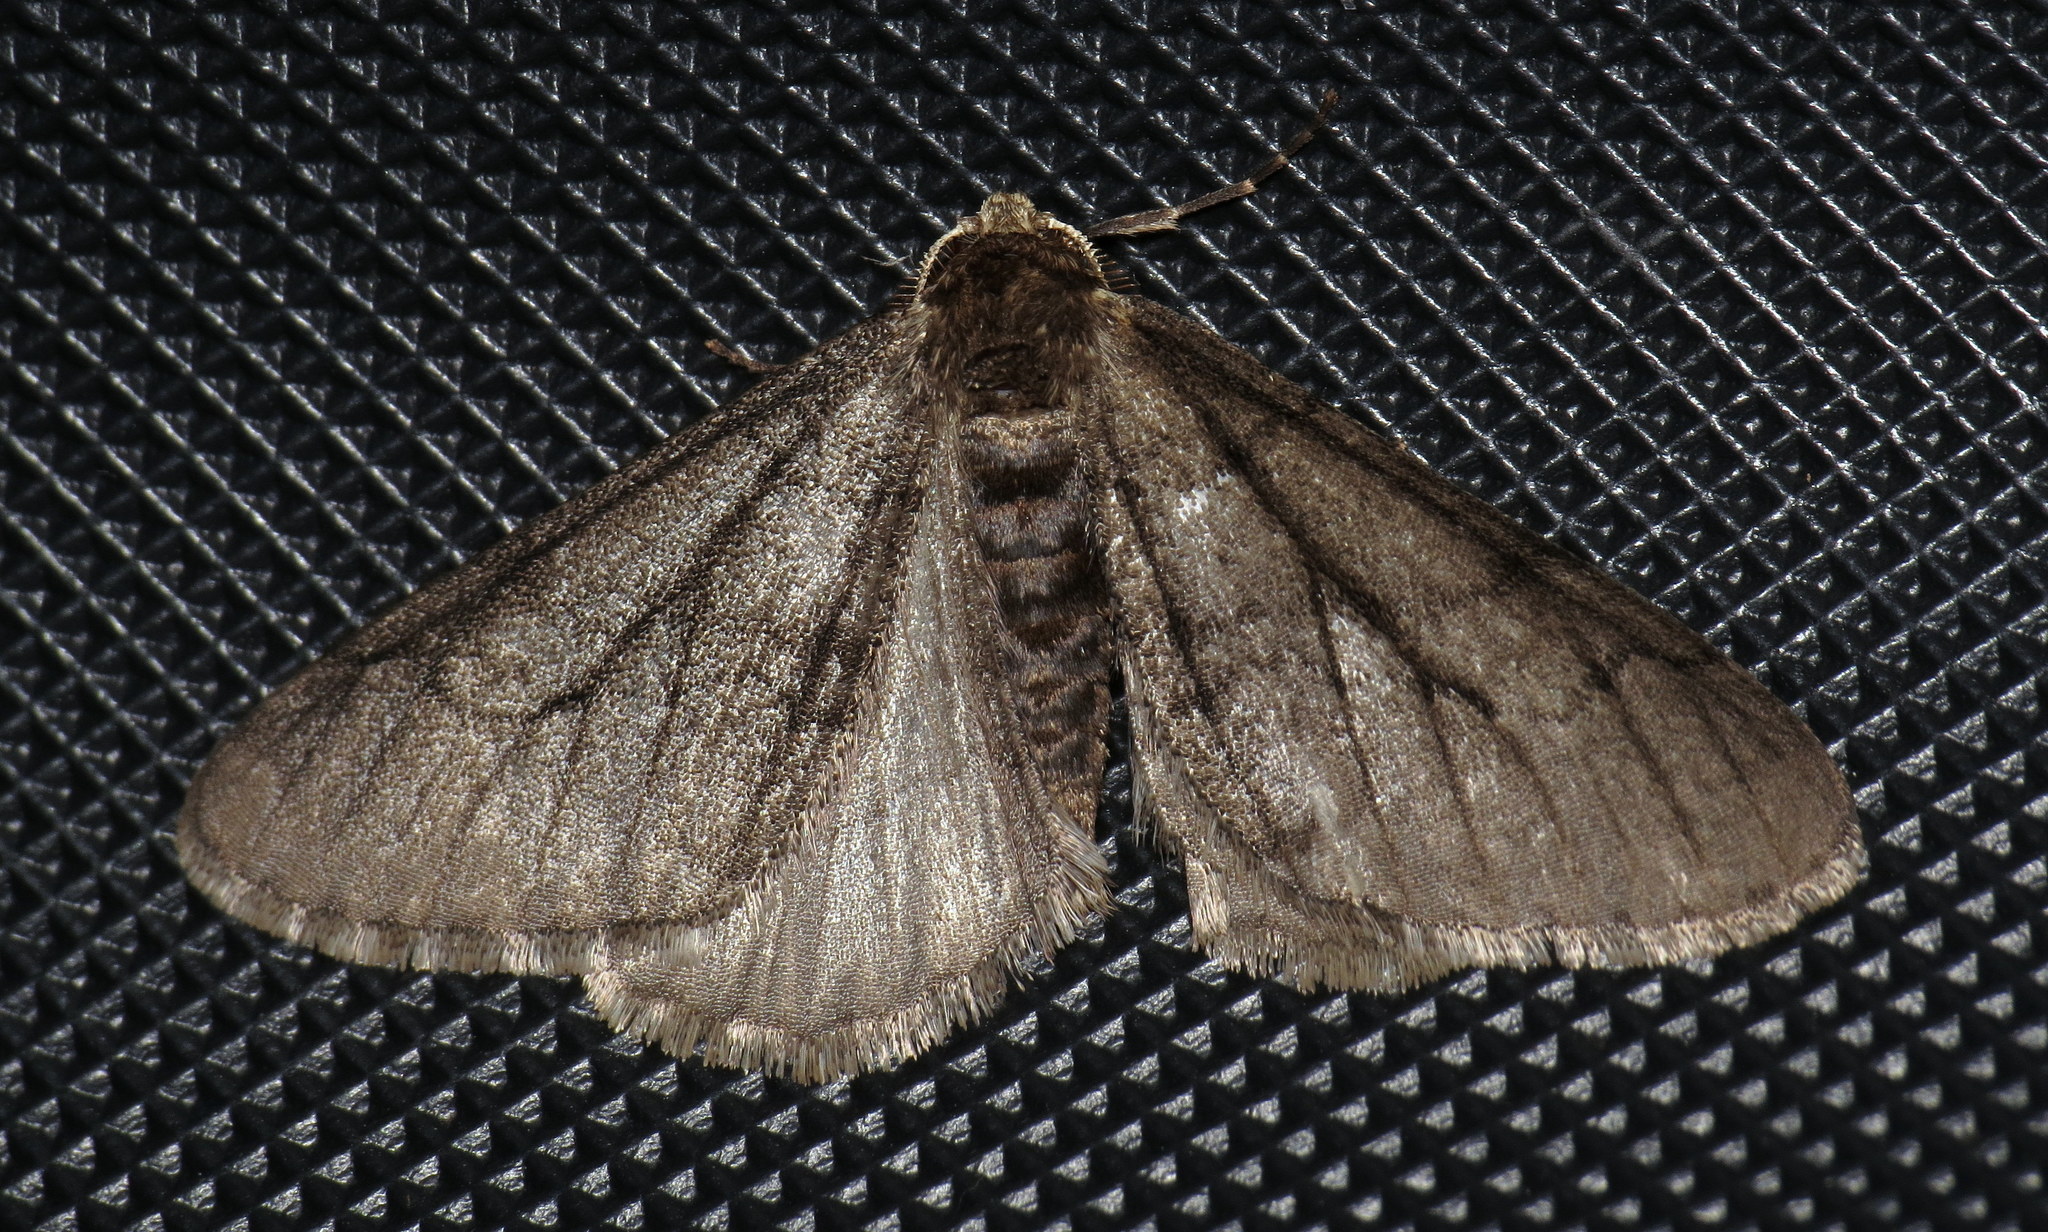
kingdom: Animalia
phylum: Arthropoda
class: Insecta
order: Lepidoptera
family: Geometridae
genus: Phigalia
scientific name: Phigalia titea
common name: Spiny looper
